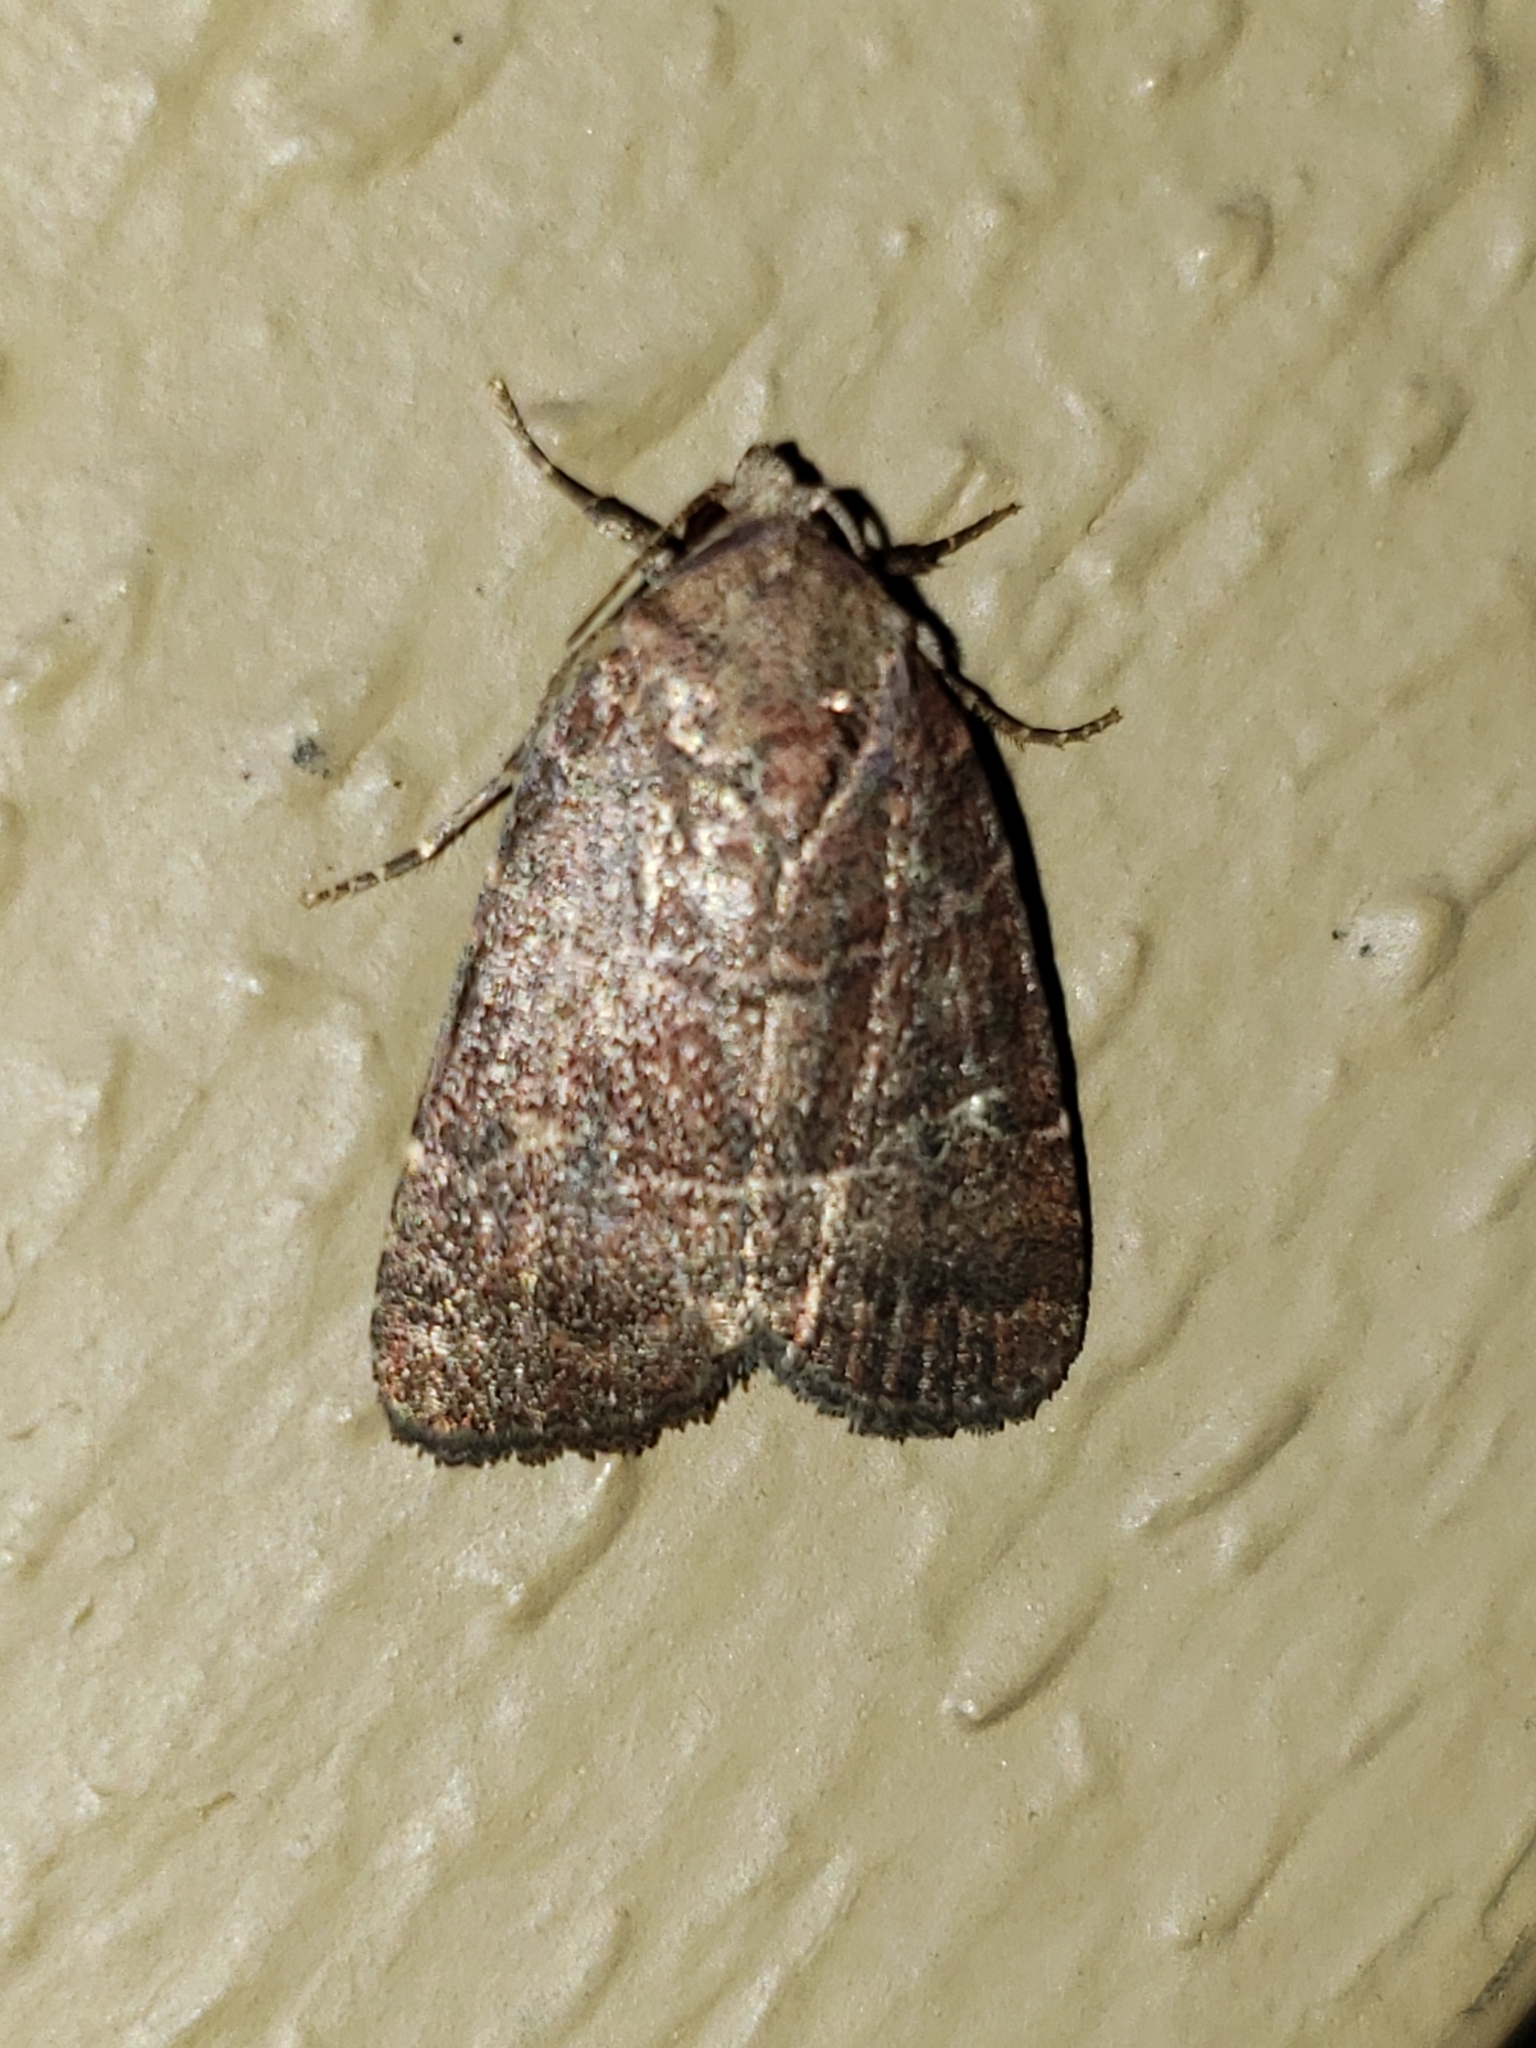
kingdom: Animalia
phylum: Arthropoda
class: Insecta
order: Lepidoptera
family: Noctuidae
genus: Elaphria
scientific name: Elaphria grata
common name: Grateful midget moth
